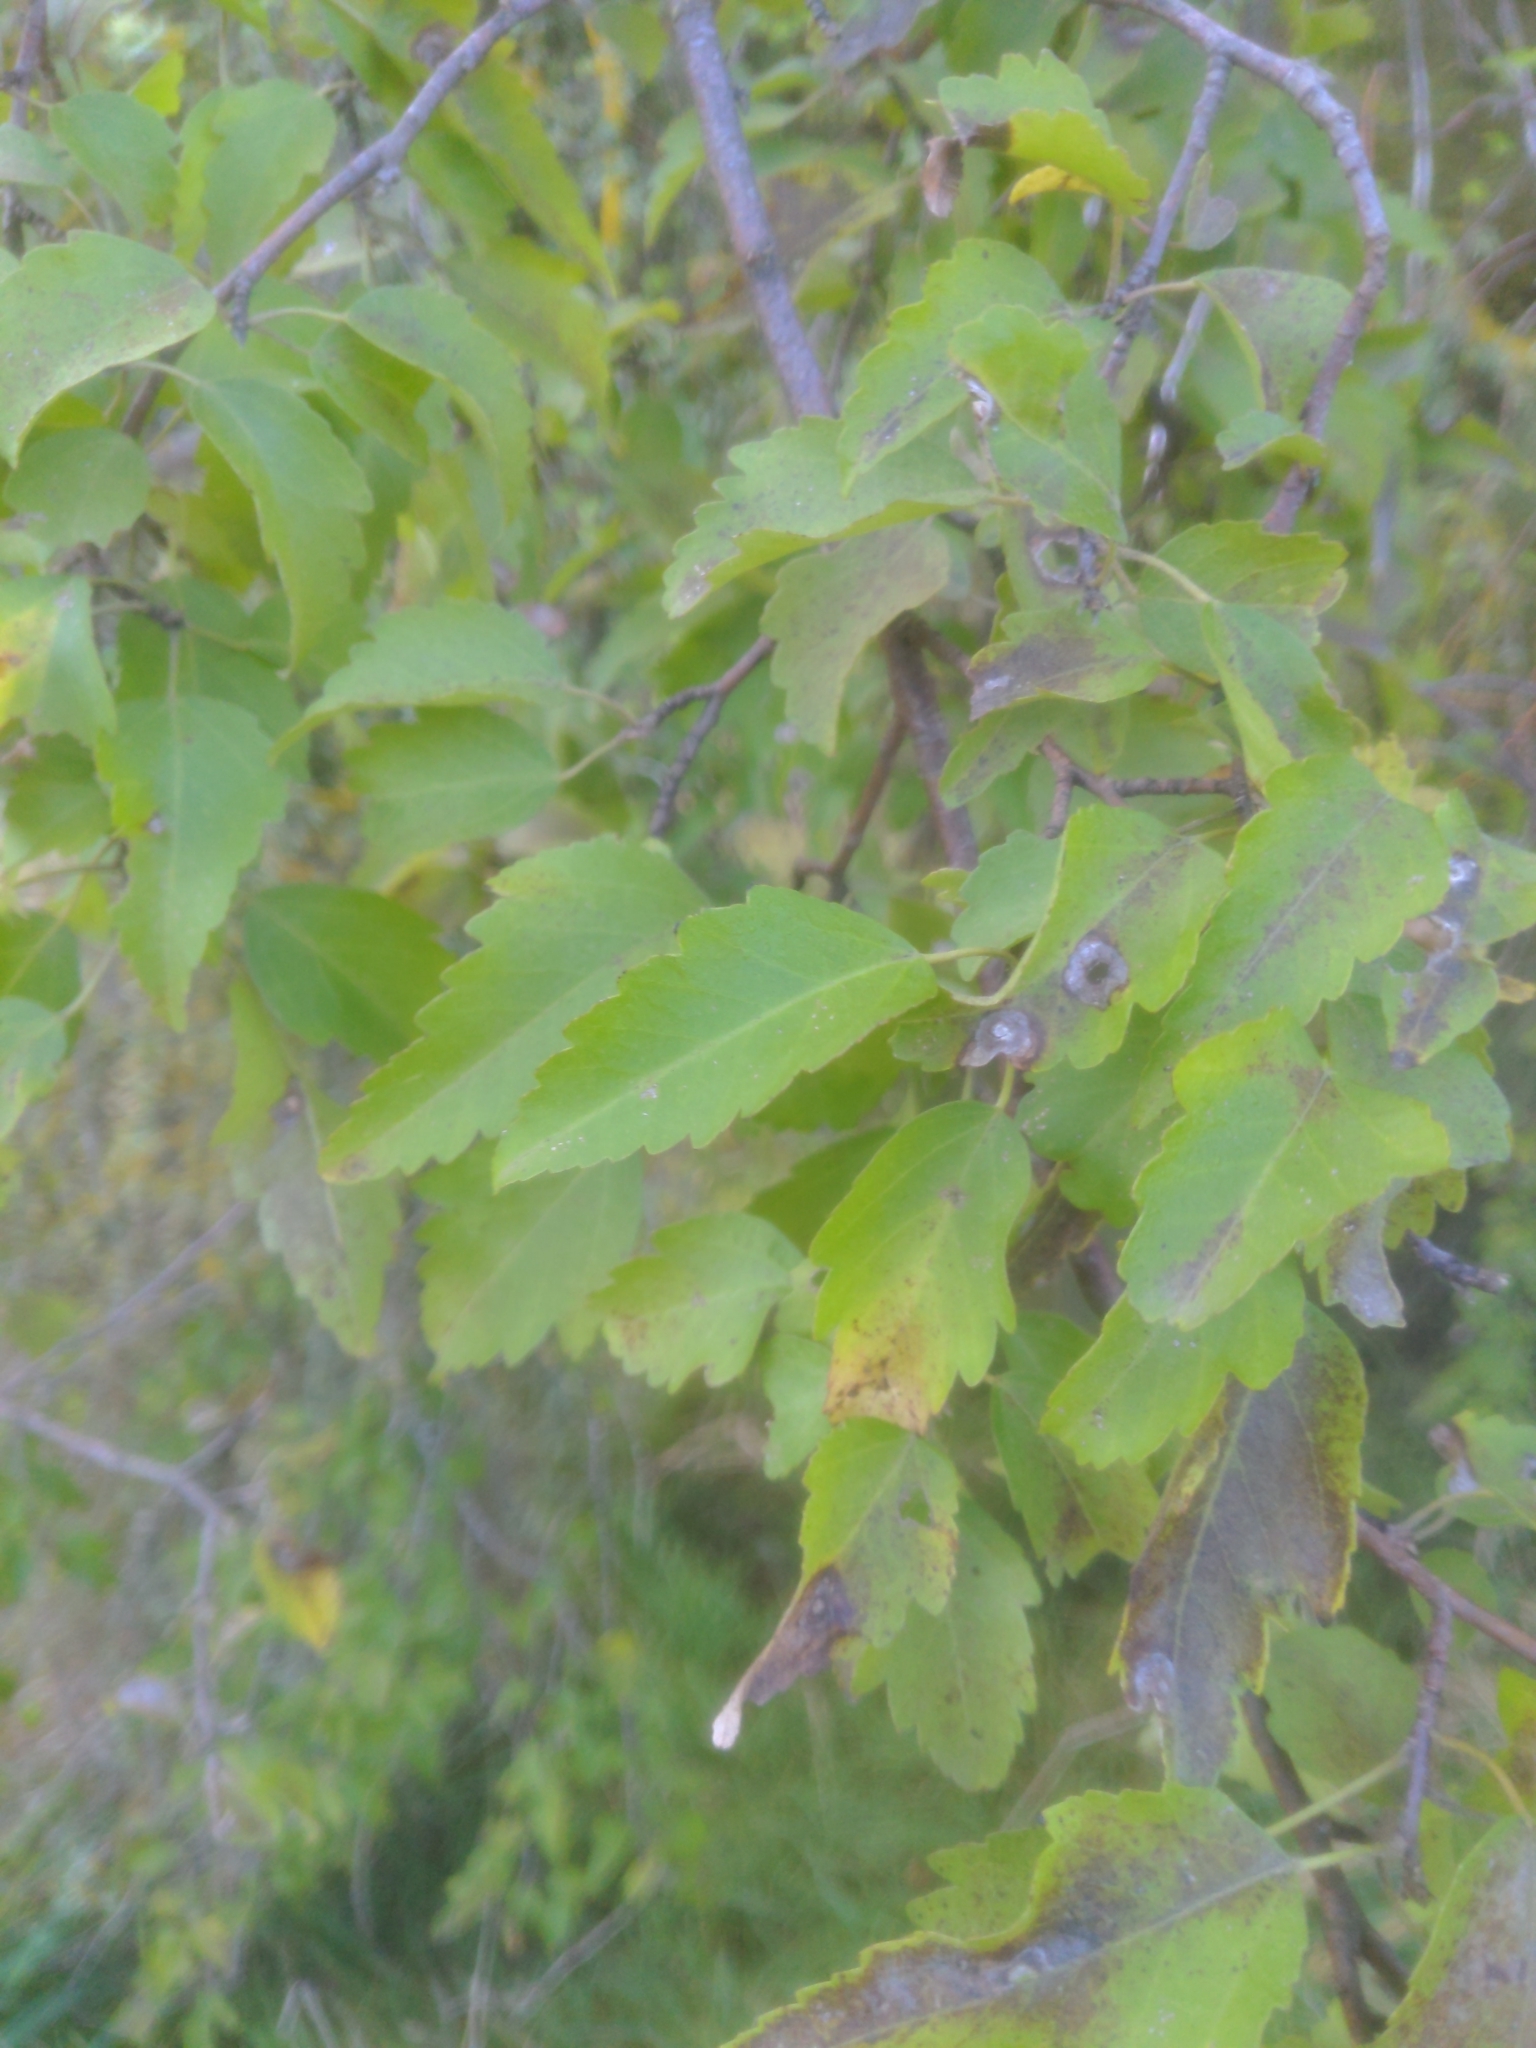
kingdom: Plantae
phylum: Tracheophyta
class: Magnoliopsida
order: Malvales
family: Malvaceae
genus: Plagianthus
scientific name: Plagianthus regius
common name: Manatu
